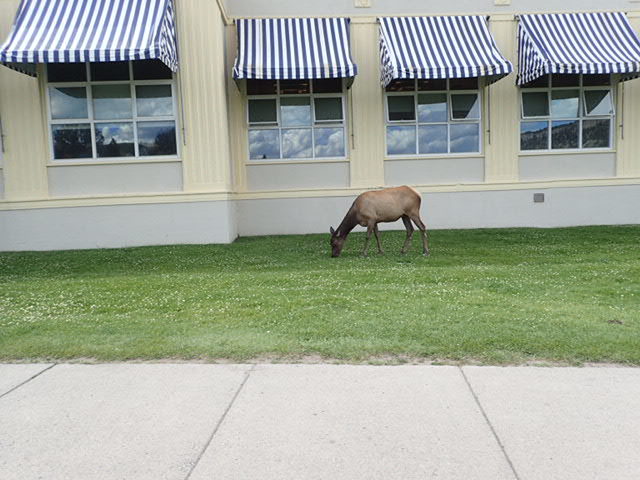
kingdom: Animalia
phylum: Chordata
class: Mammalia
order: Artiodactyla
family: Cervidae
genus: Cervus
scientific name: Cervus elaphus
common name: Red deer
